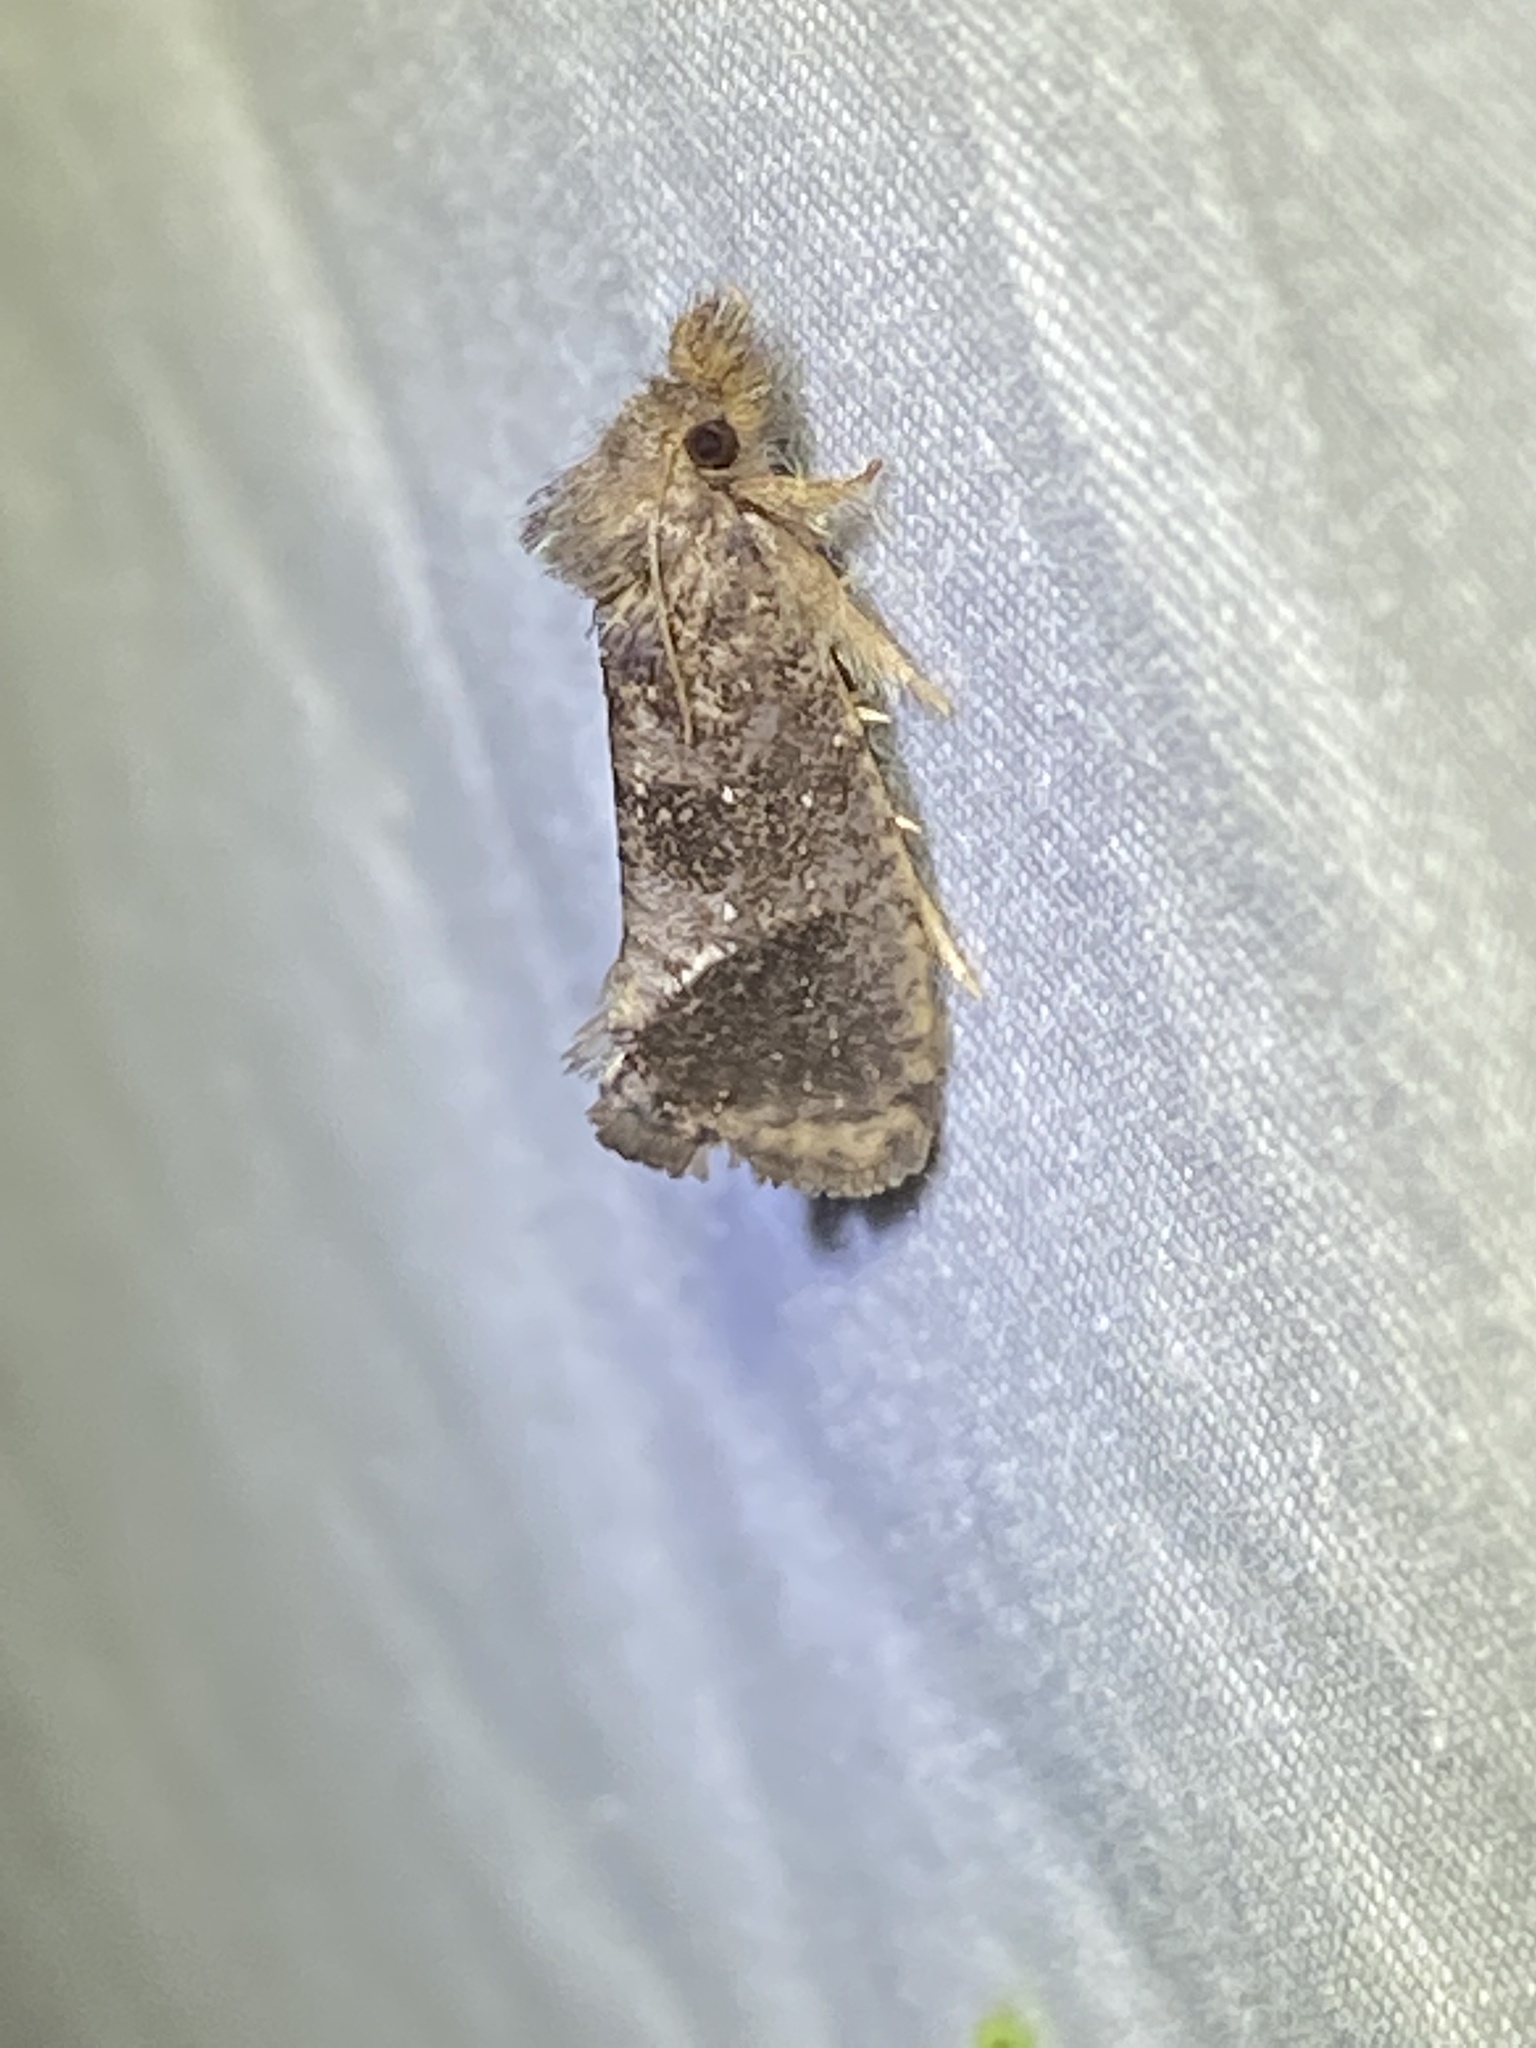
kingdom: Animalia
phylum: Arthropoda
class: Insecta
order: Lepidoptera
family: Tineidae
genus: Acrolophus
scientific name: Acrolophus texanella
